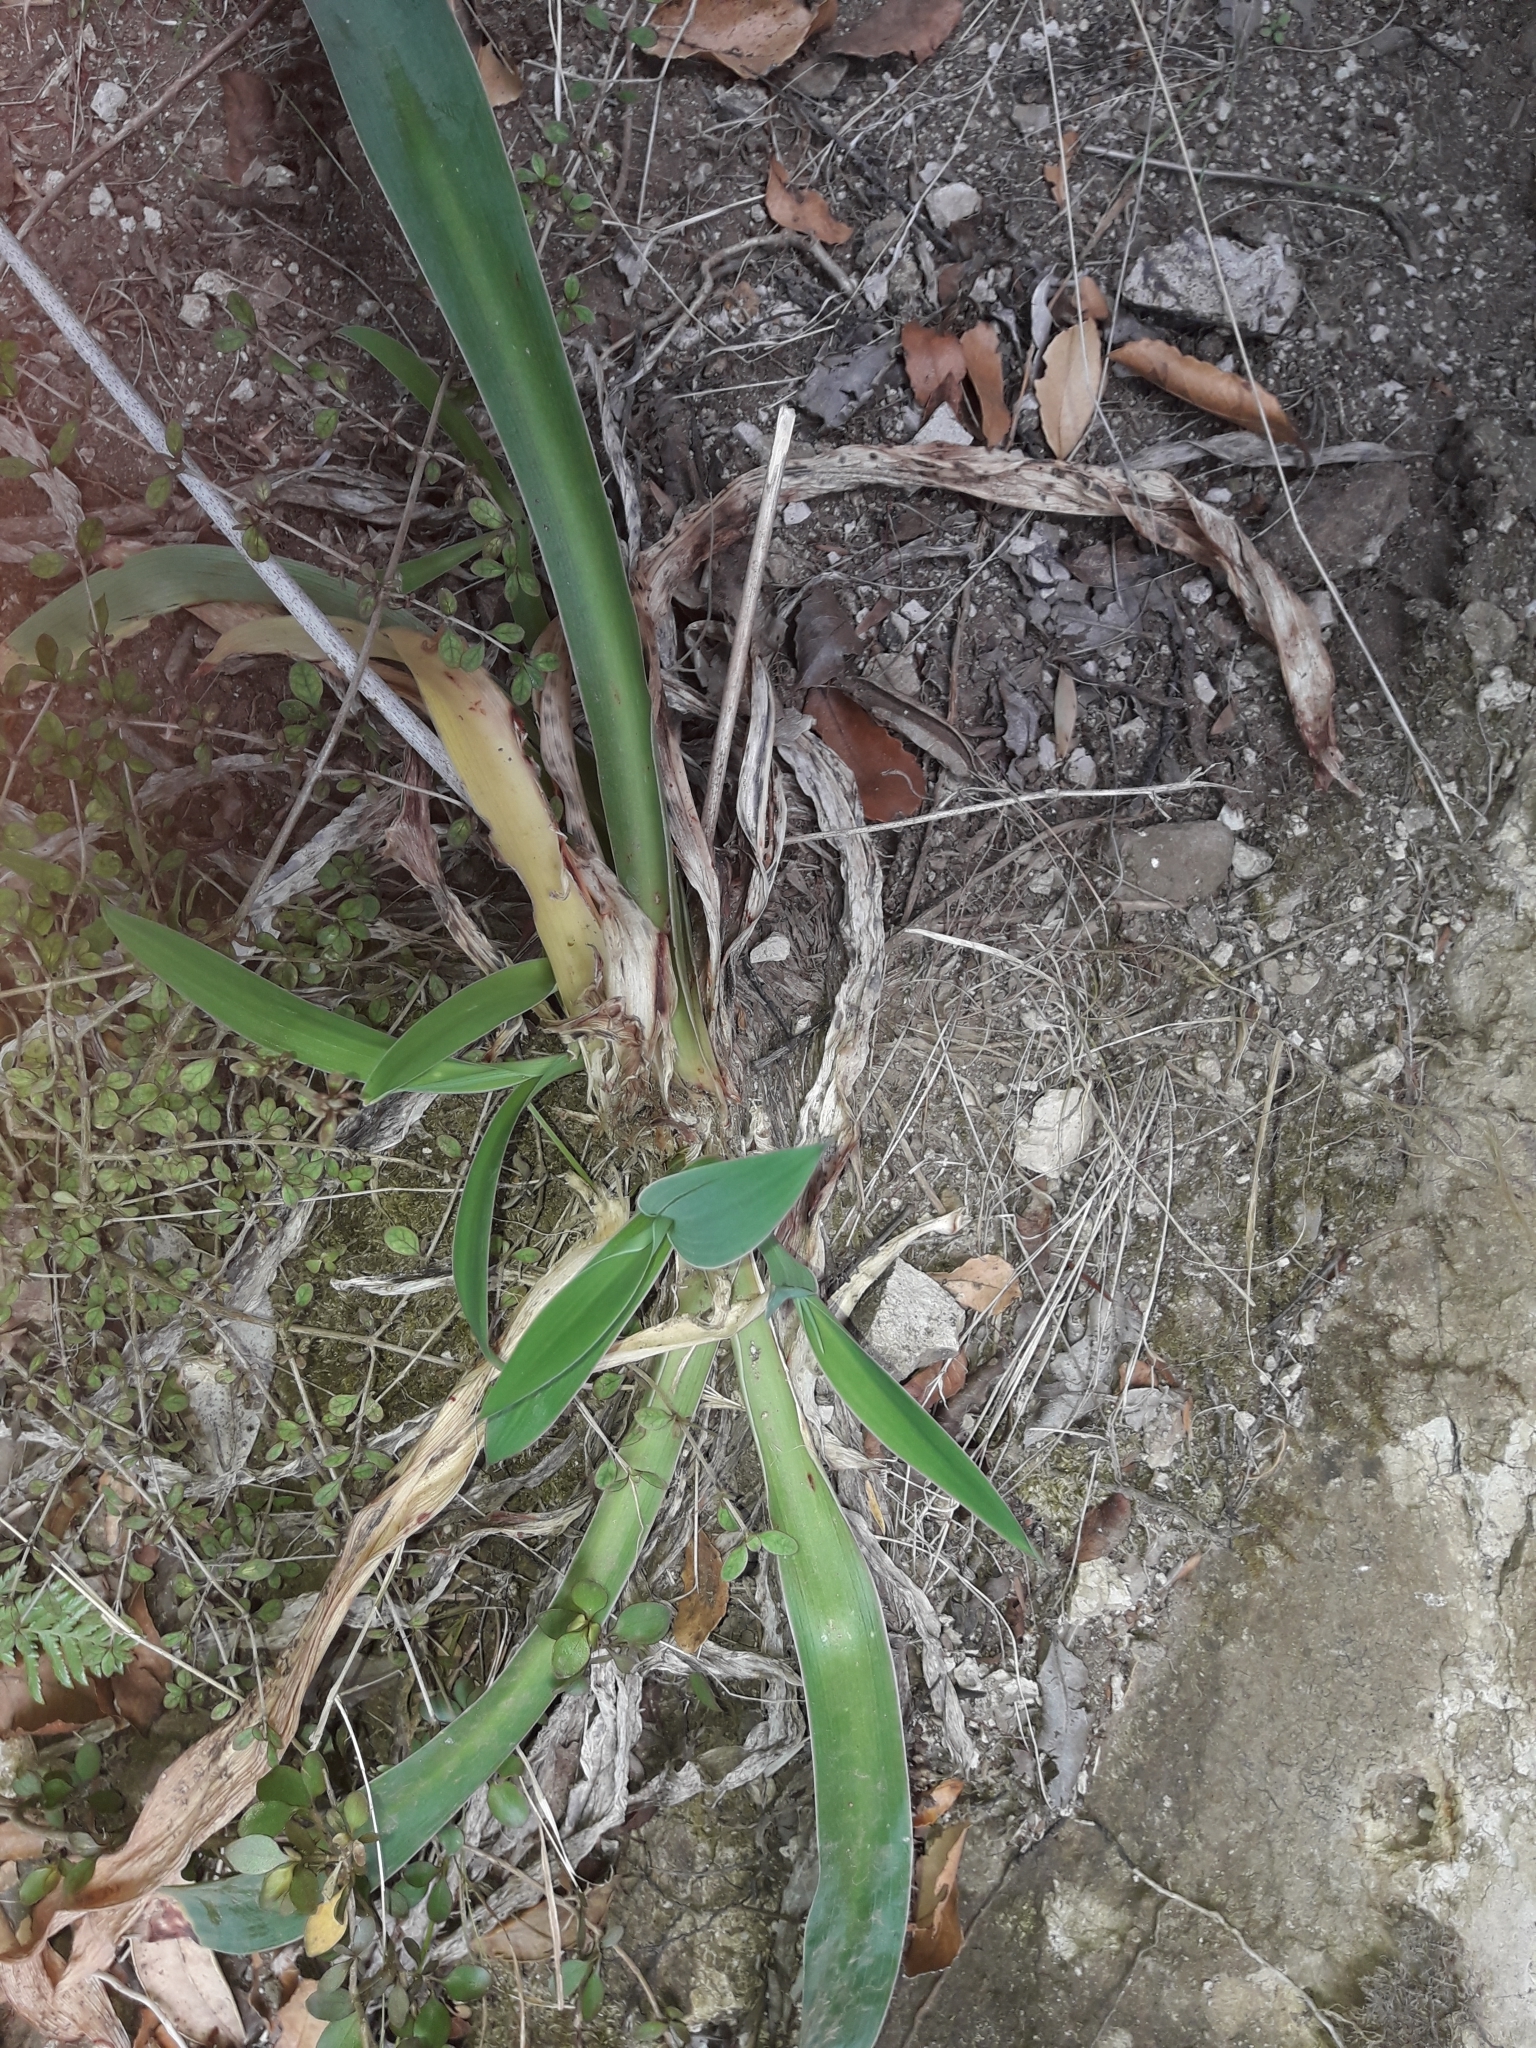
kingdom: Plantae
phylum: Tracheophyta
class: Liliopsida
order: Asparagales
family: Asparagaceae
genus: Arthropodium
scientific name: Arthropodium cirratum
